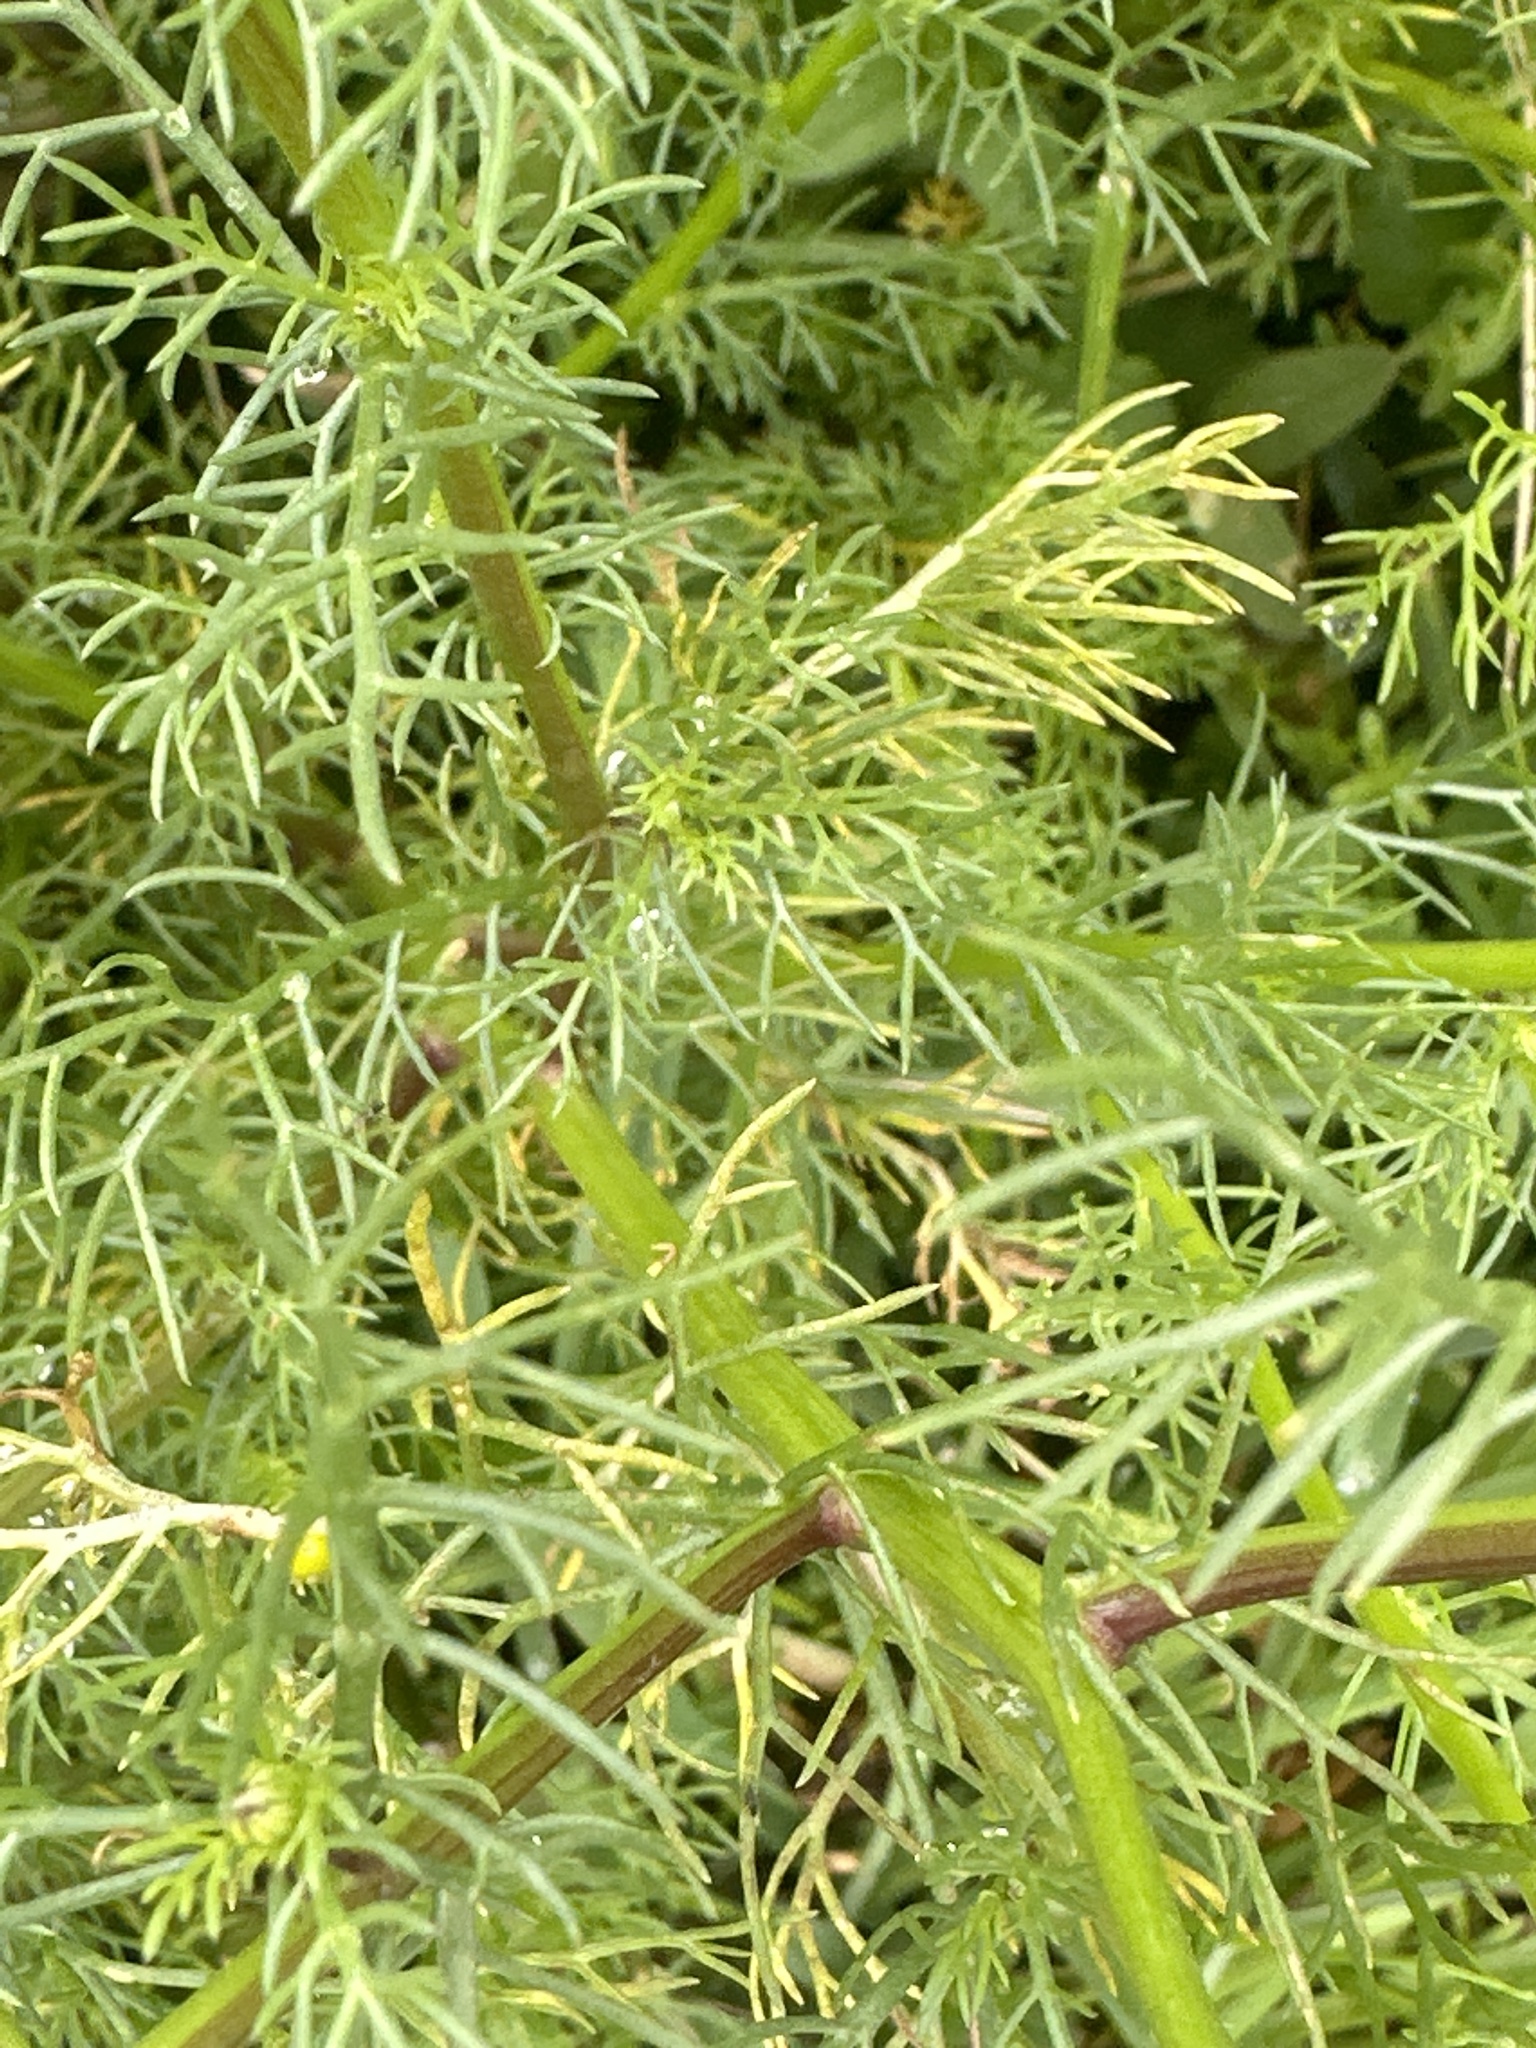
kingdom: Plantae
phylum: Tracheophyta
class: Magnoliopsida
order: Asterales
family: Asteraceae
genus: Matricaria
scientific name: Matricaria chamomilla
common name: Scented mayweed
